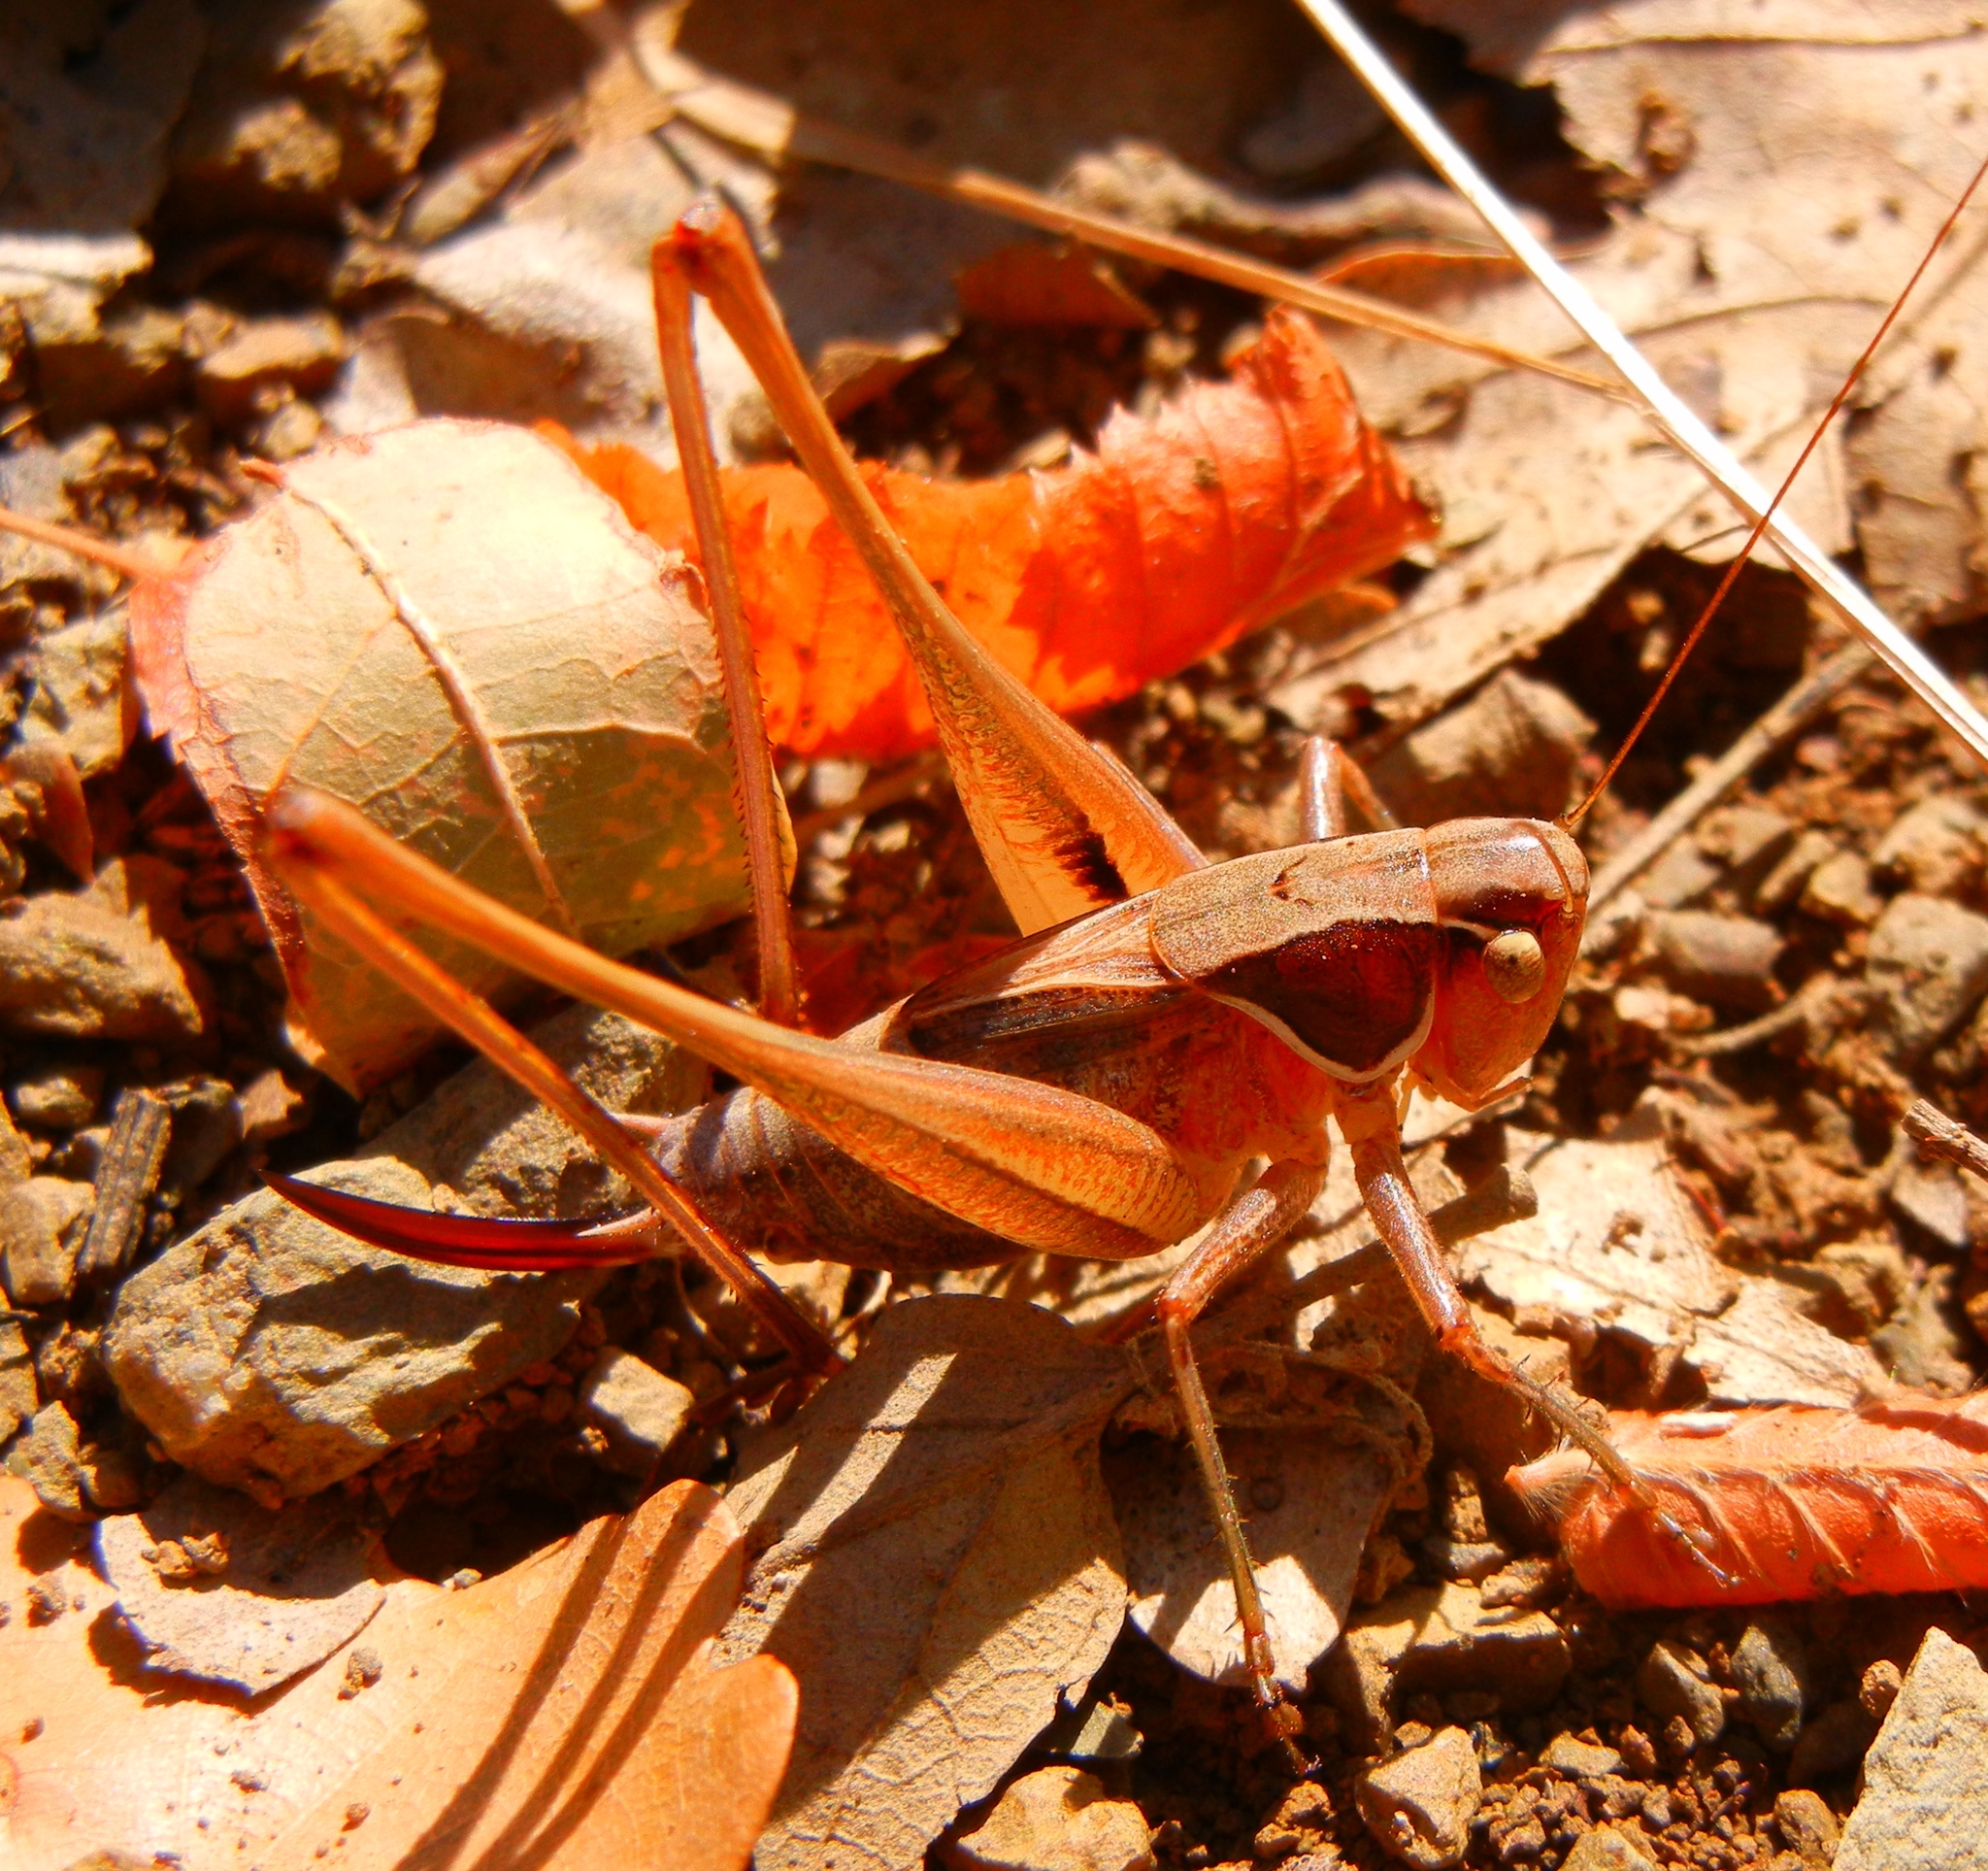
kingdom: Animalia
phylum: Arthropoda
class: Insecta
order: Orthoptera
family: Tettigoniidae
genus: Sepiana
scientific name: Sepiana sepium
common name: Sepia bush-cricket
